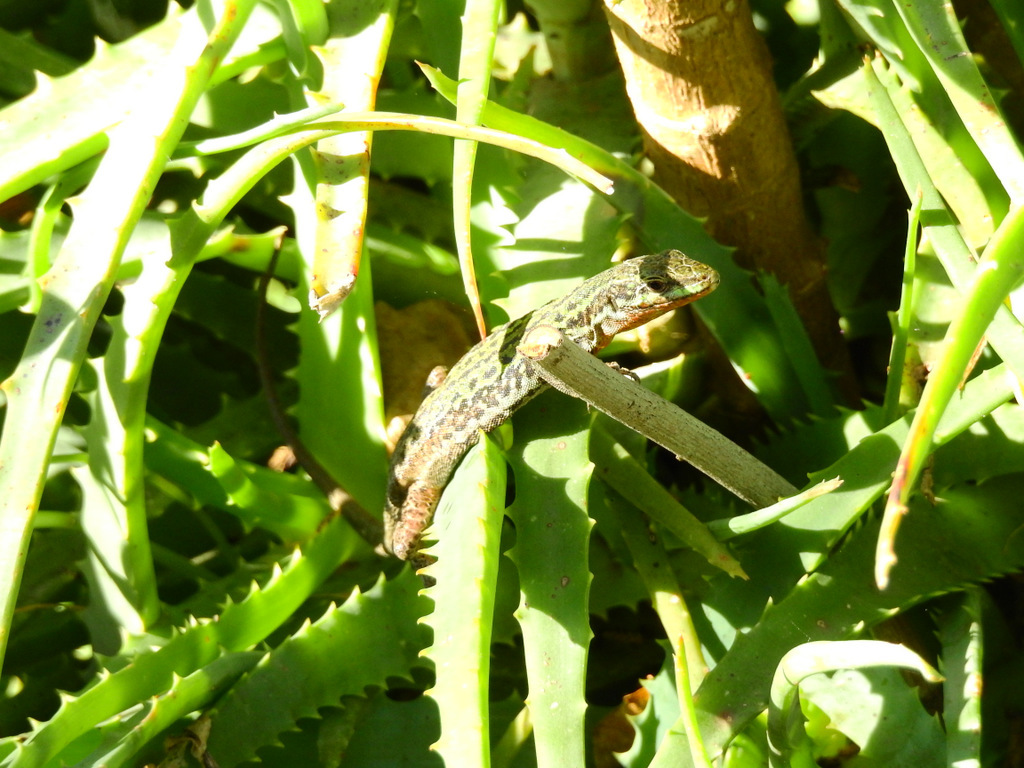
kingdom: Animalia
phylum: Chordata
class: Squamata
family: Lacertidae
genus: Podarcis
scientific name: Podarcis siculus
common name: Italian wall lizard
